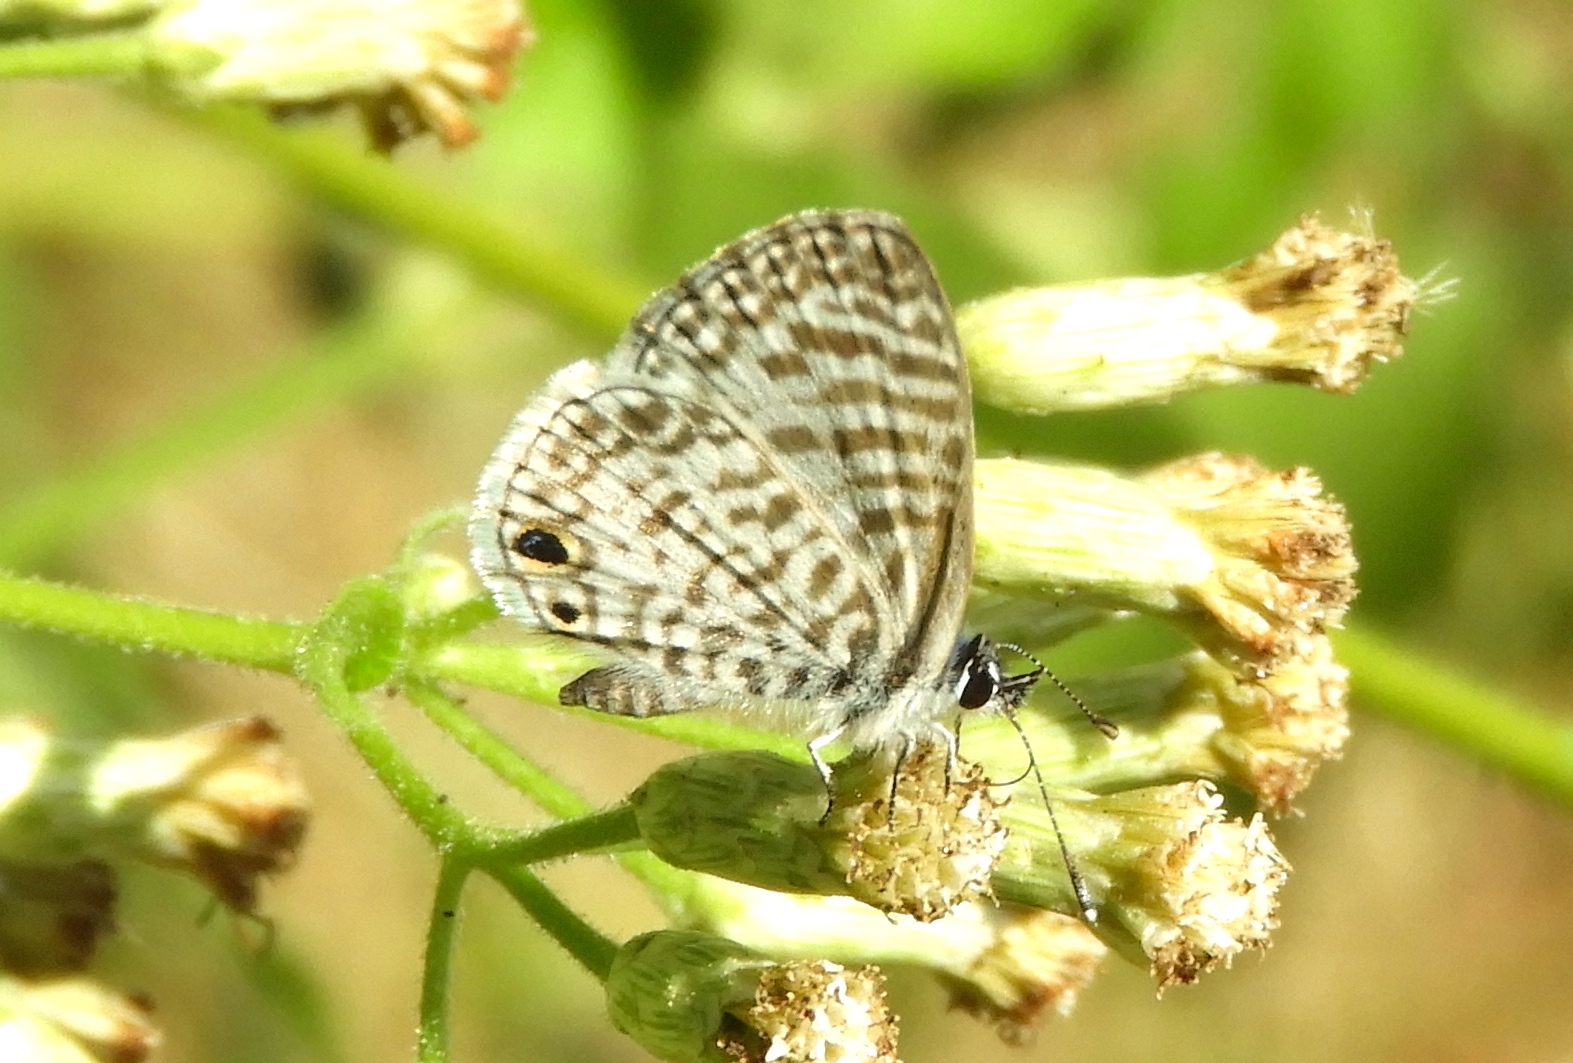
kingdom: Animalia
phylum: Arthropoda
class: Insecta
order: Lepidoptera
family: Lycaenidae
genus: Leptotes
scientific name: Leptotes theonus
